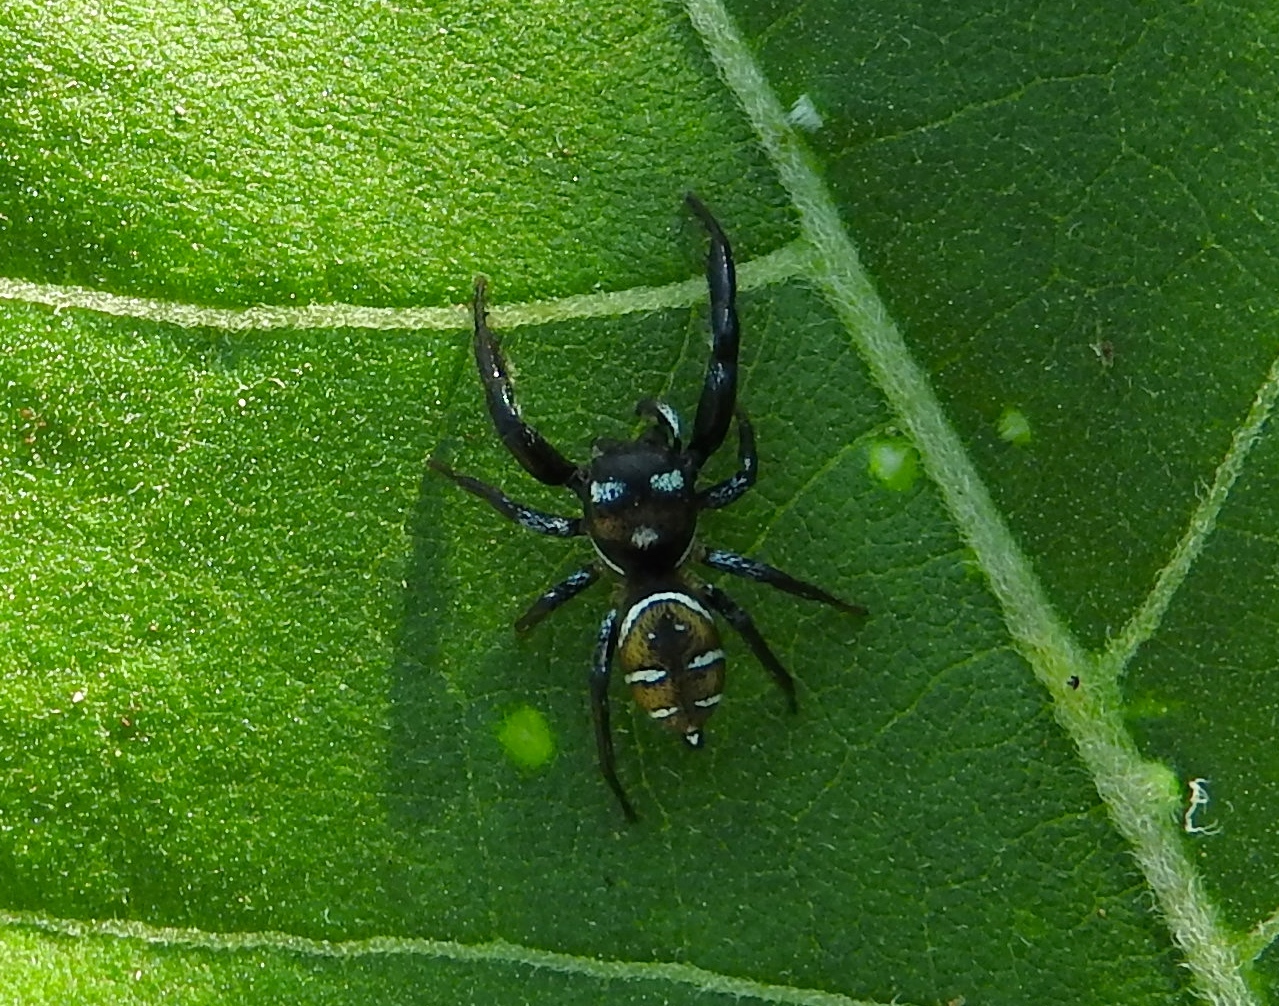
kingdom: Animalia
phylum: Arthropoda
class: Arachnida
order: Araneae
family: Salticidae
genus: Sassacus
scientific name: Sassacus
